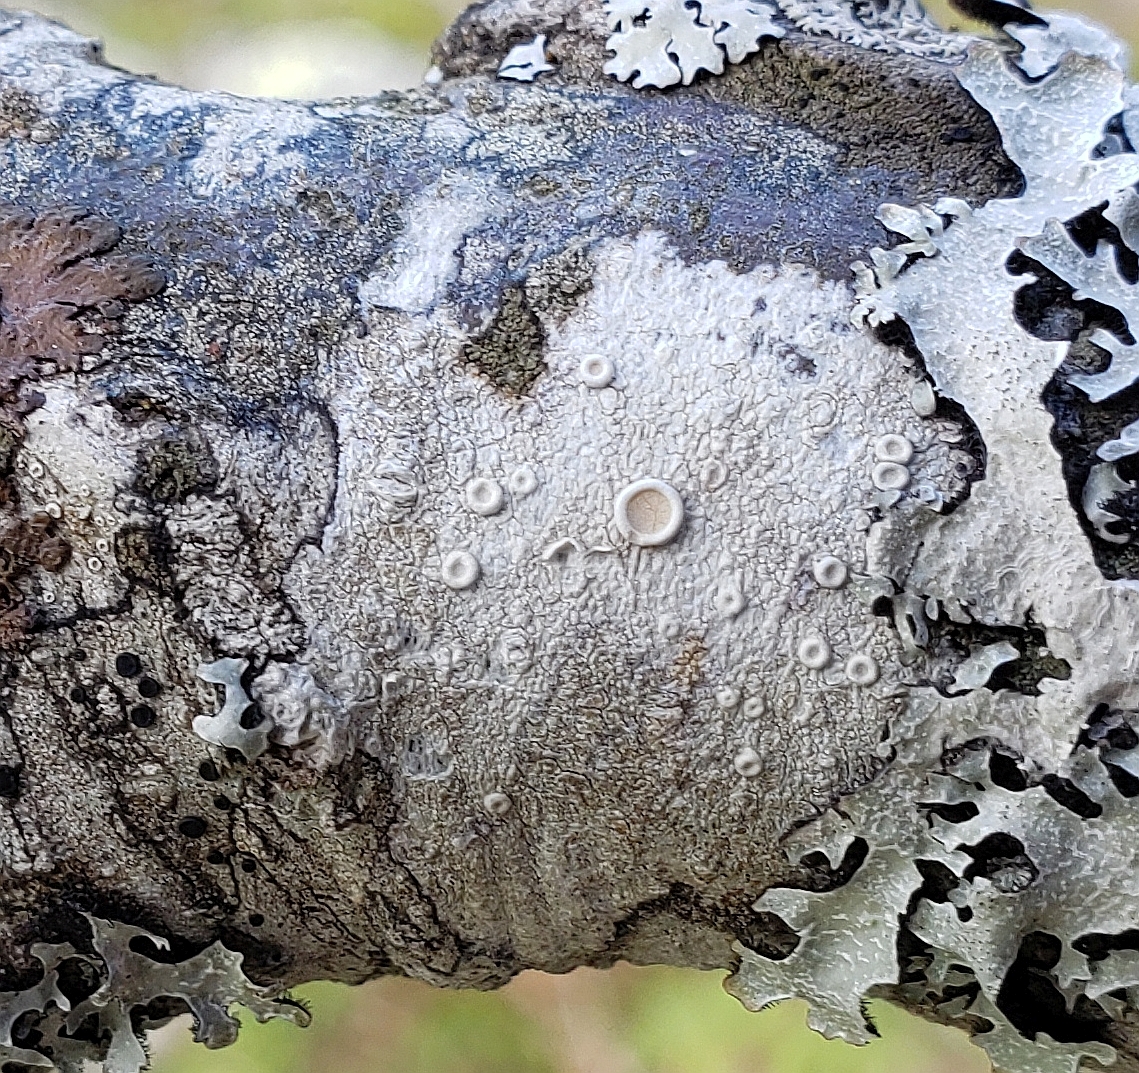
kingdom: Fungi
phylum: Ascomycota
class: Lecanoromycetes
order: Pertusariales
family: Ochrolechiaceae
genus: Ochrolechia
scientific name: Ochrolechia africana
